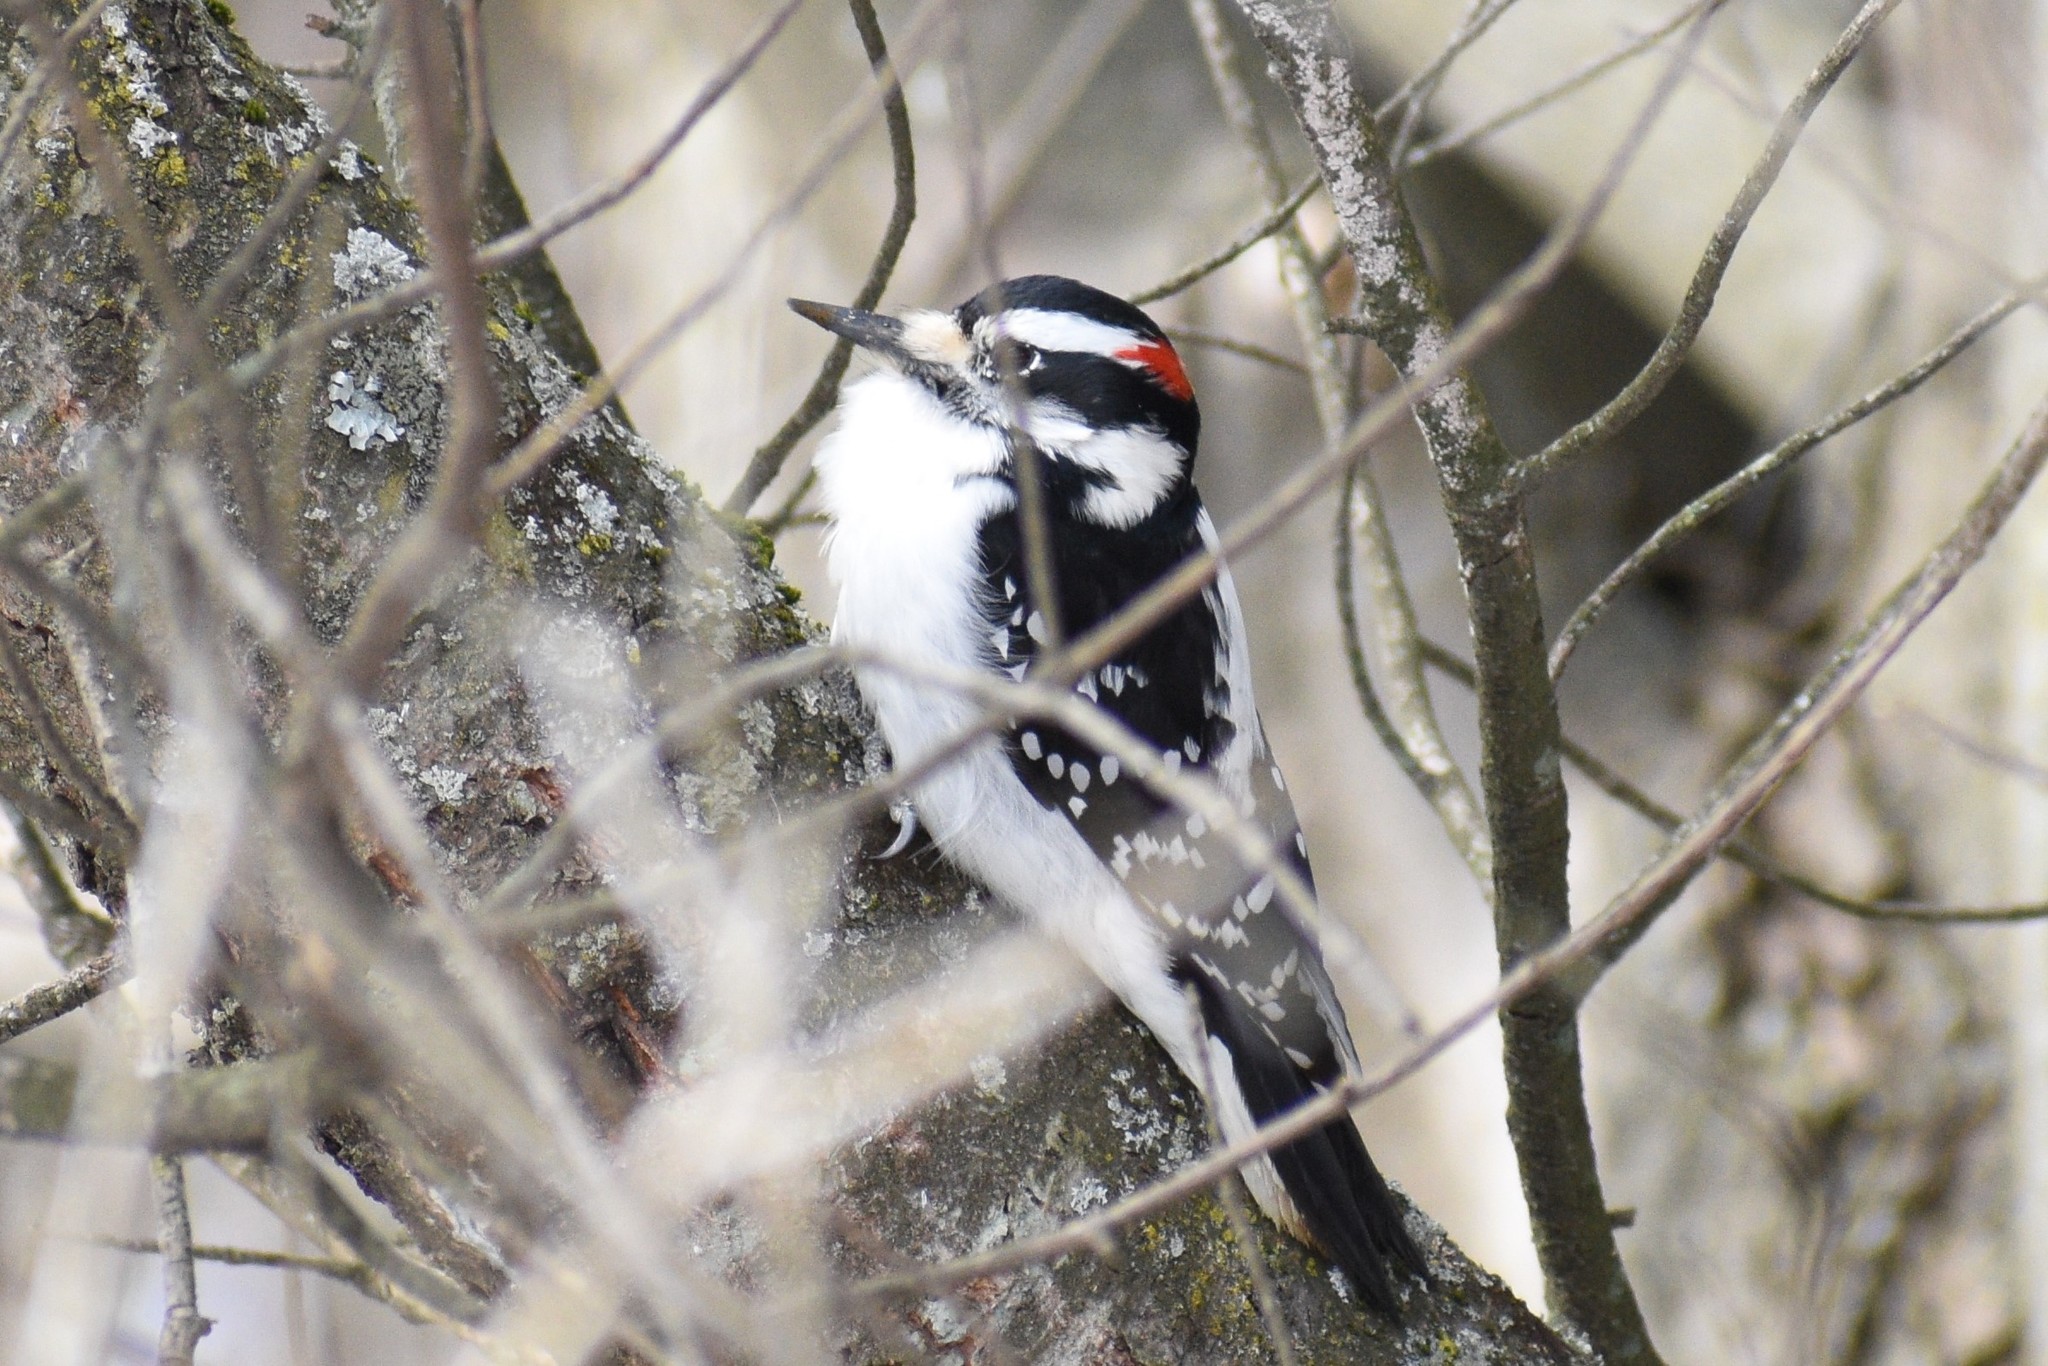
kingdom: Animalia
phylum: Chordata
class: Aves
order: Piciformes
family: Picidae
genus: Leuconotopicus
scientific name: Leuconotopicus villosus
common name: Hairy woodpecker
